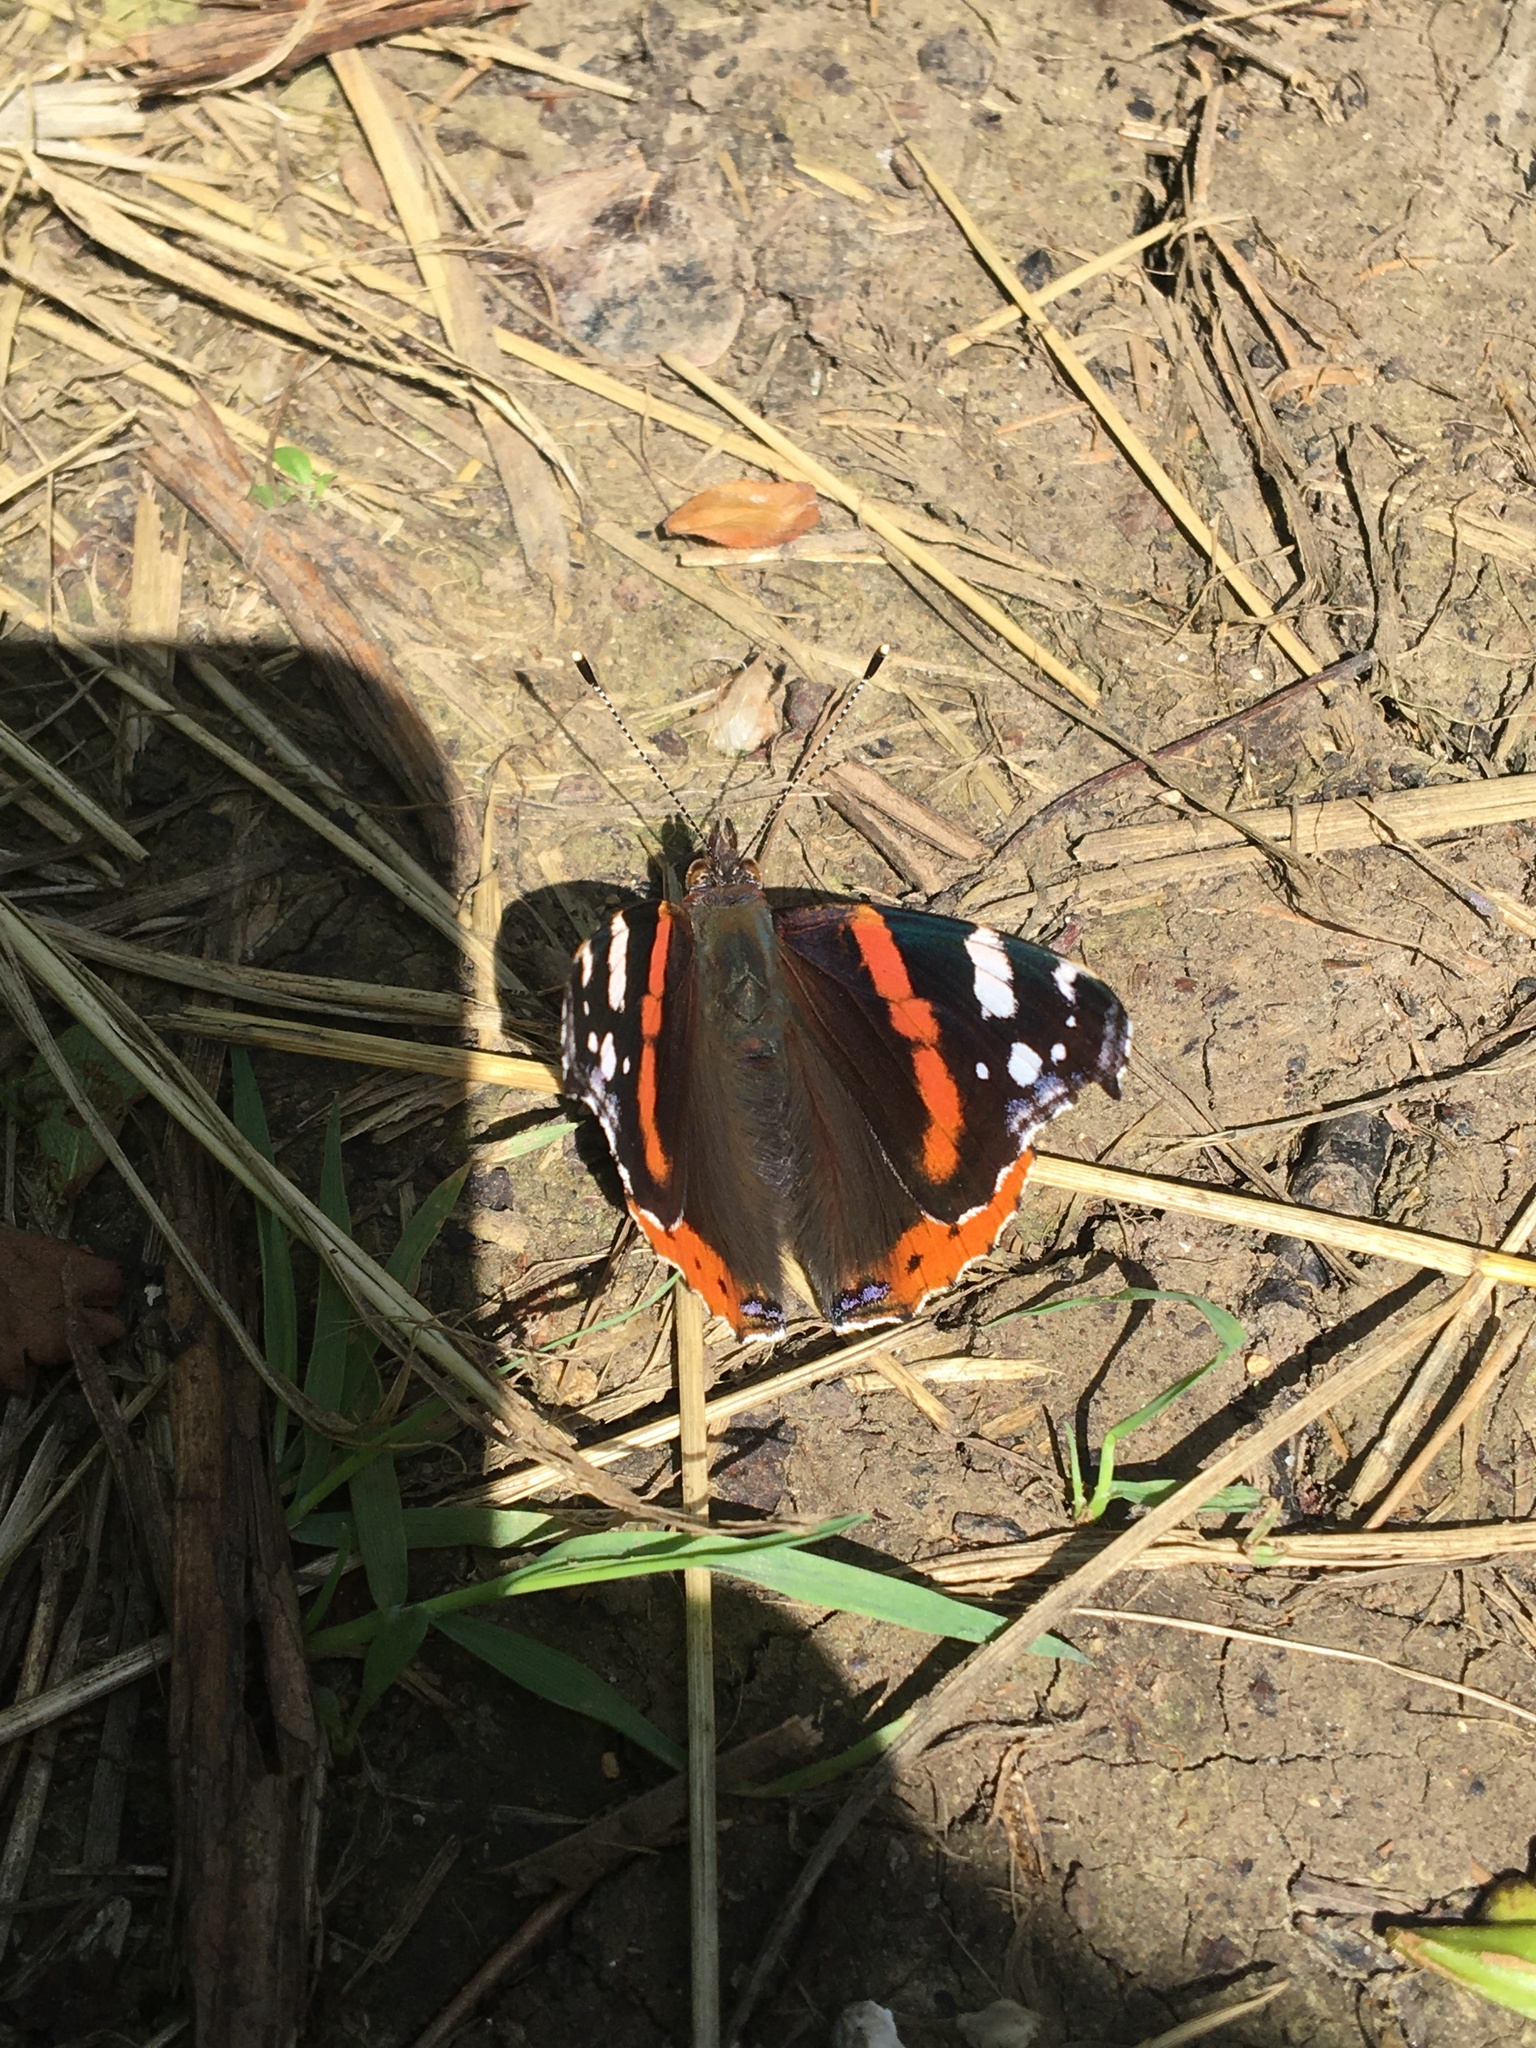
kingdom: Animalia
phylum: Arthropoda
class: Insecta
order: Lepidoptera
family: Nymphalidae
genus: Vanessa
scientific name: Vanessa atalanta
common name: Red admiral
